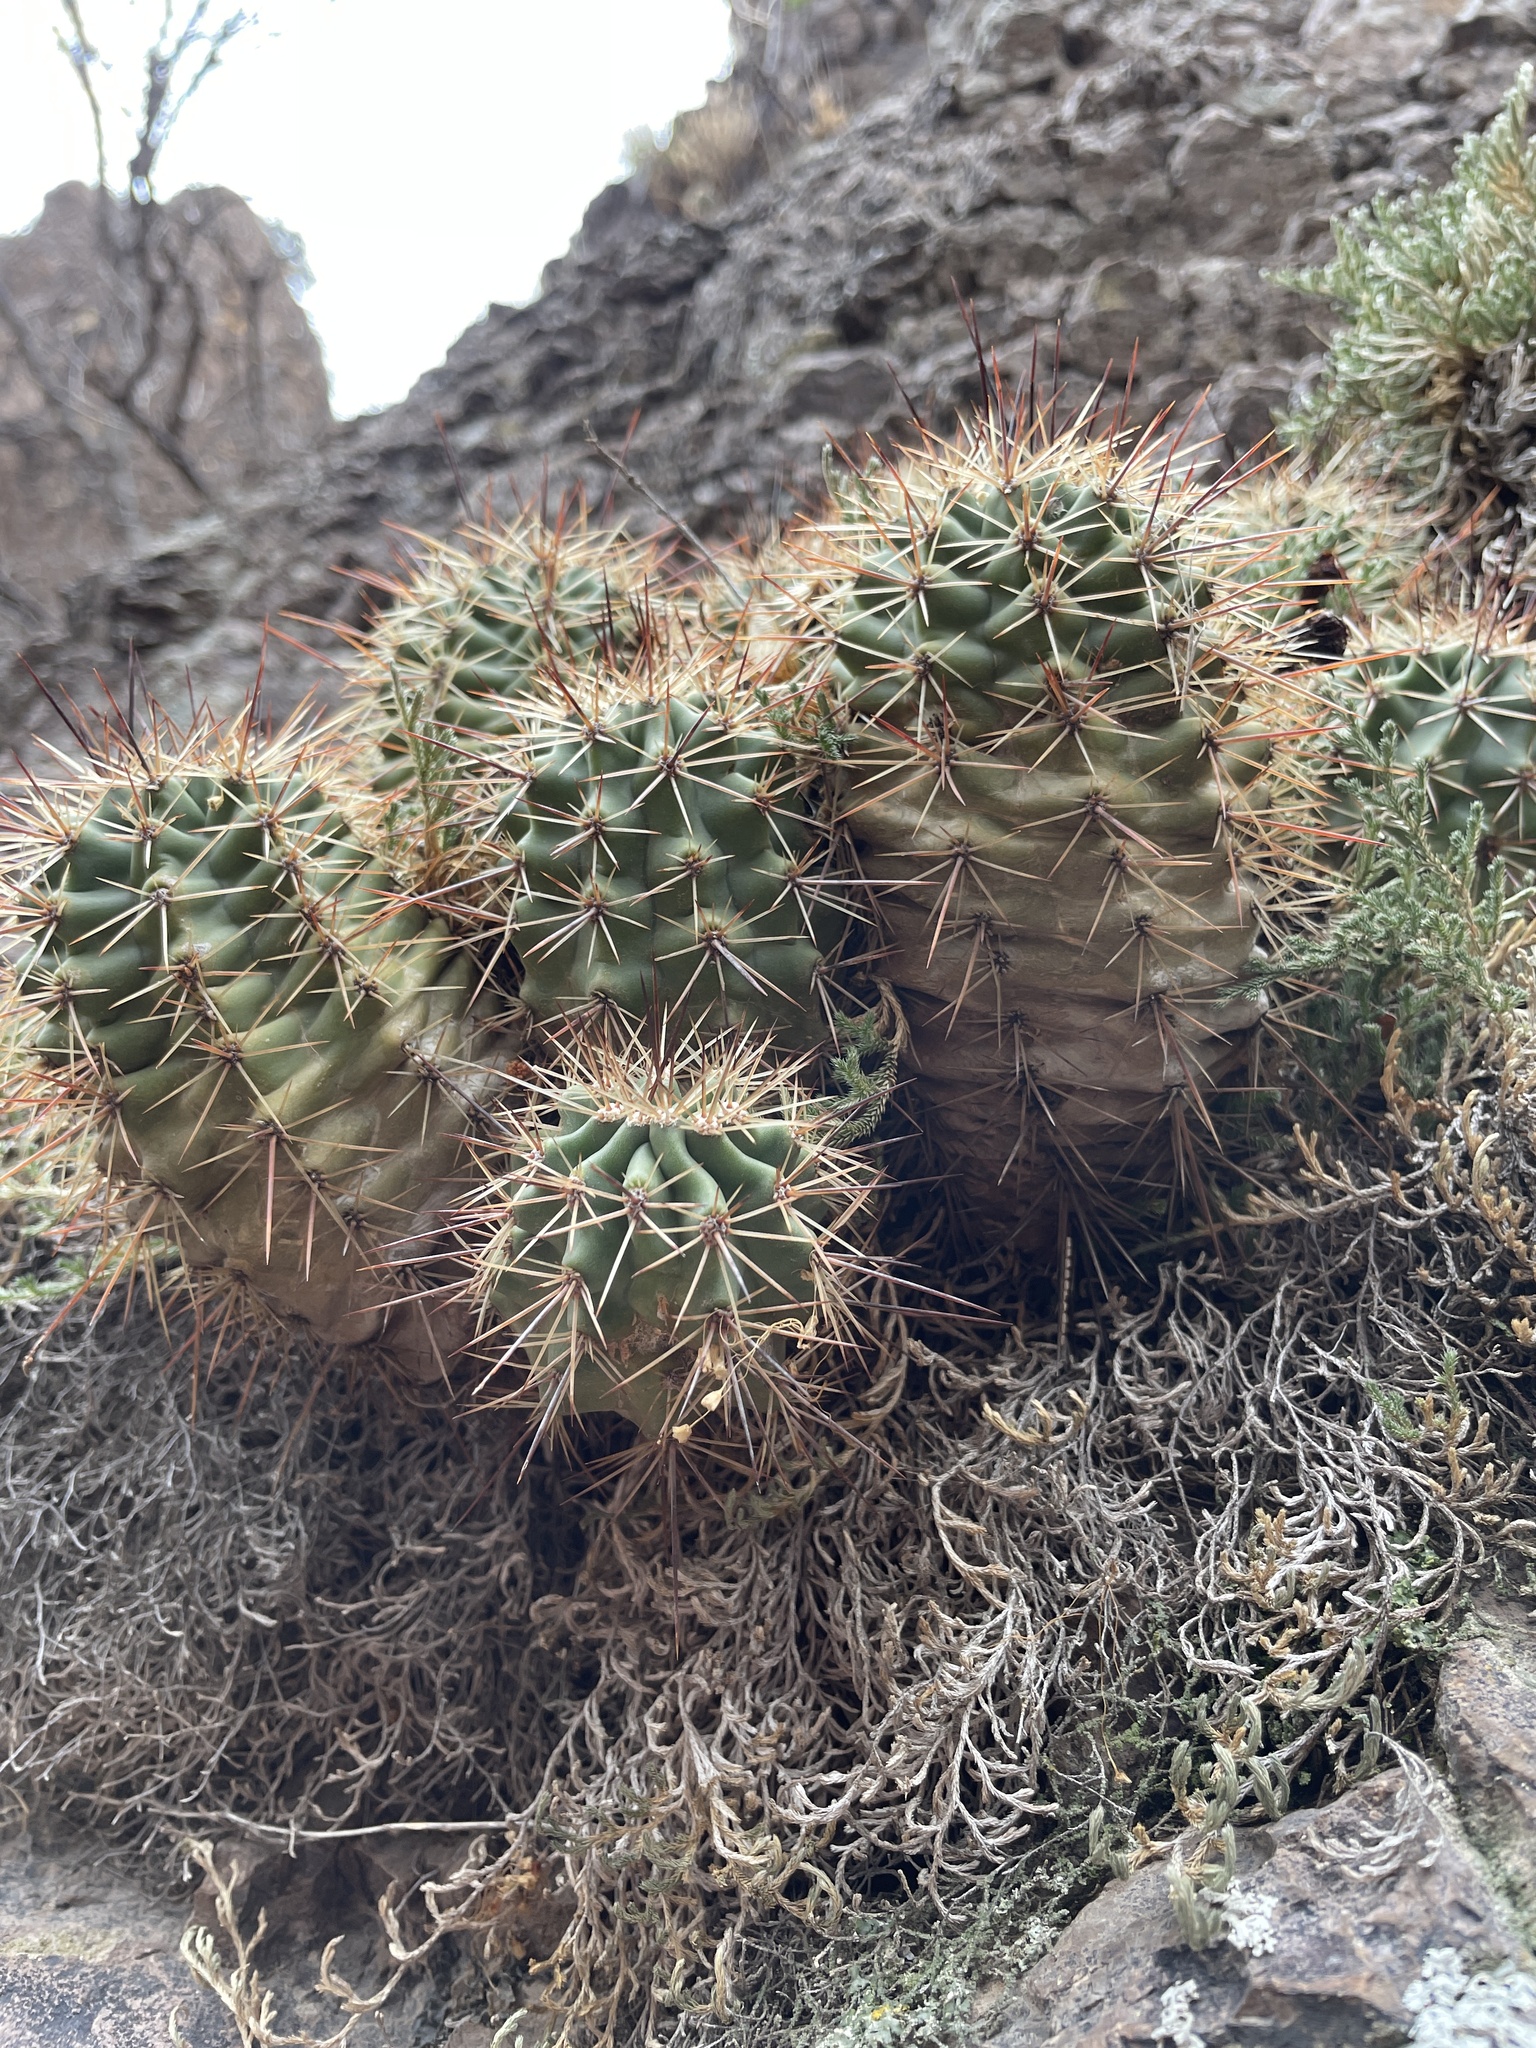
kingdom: Plantae
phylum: Tracheophyta
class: Magnoliopsida
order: Caryophyllales
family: Cactaceae
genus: Echinocereus
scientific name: Echinocereus coccineus
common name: Scarlet hedgehog cactus
